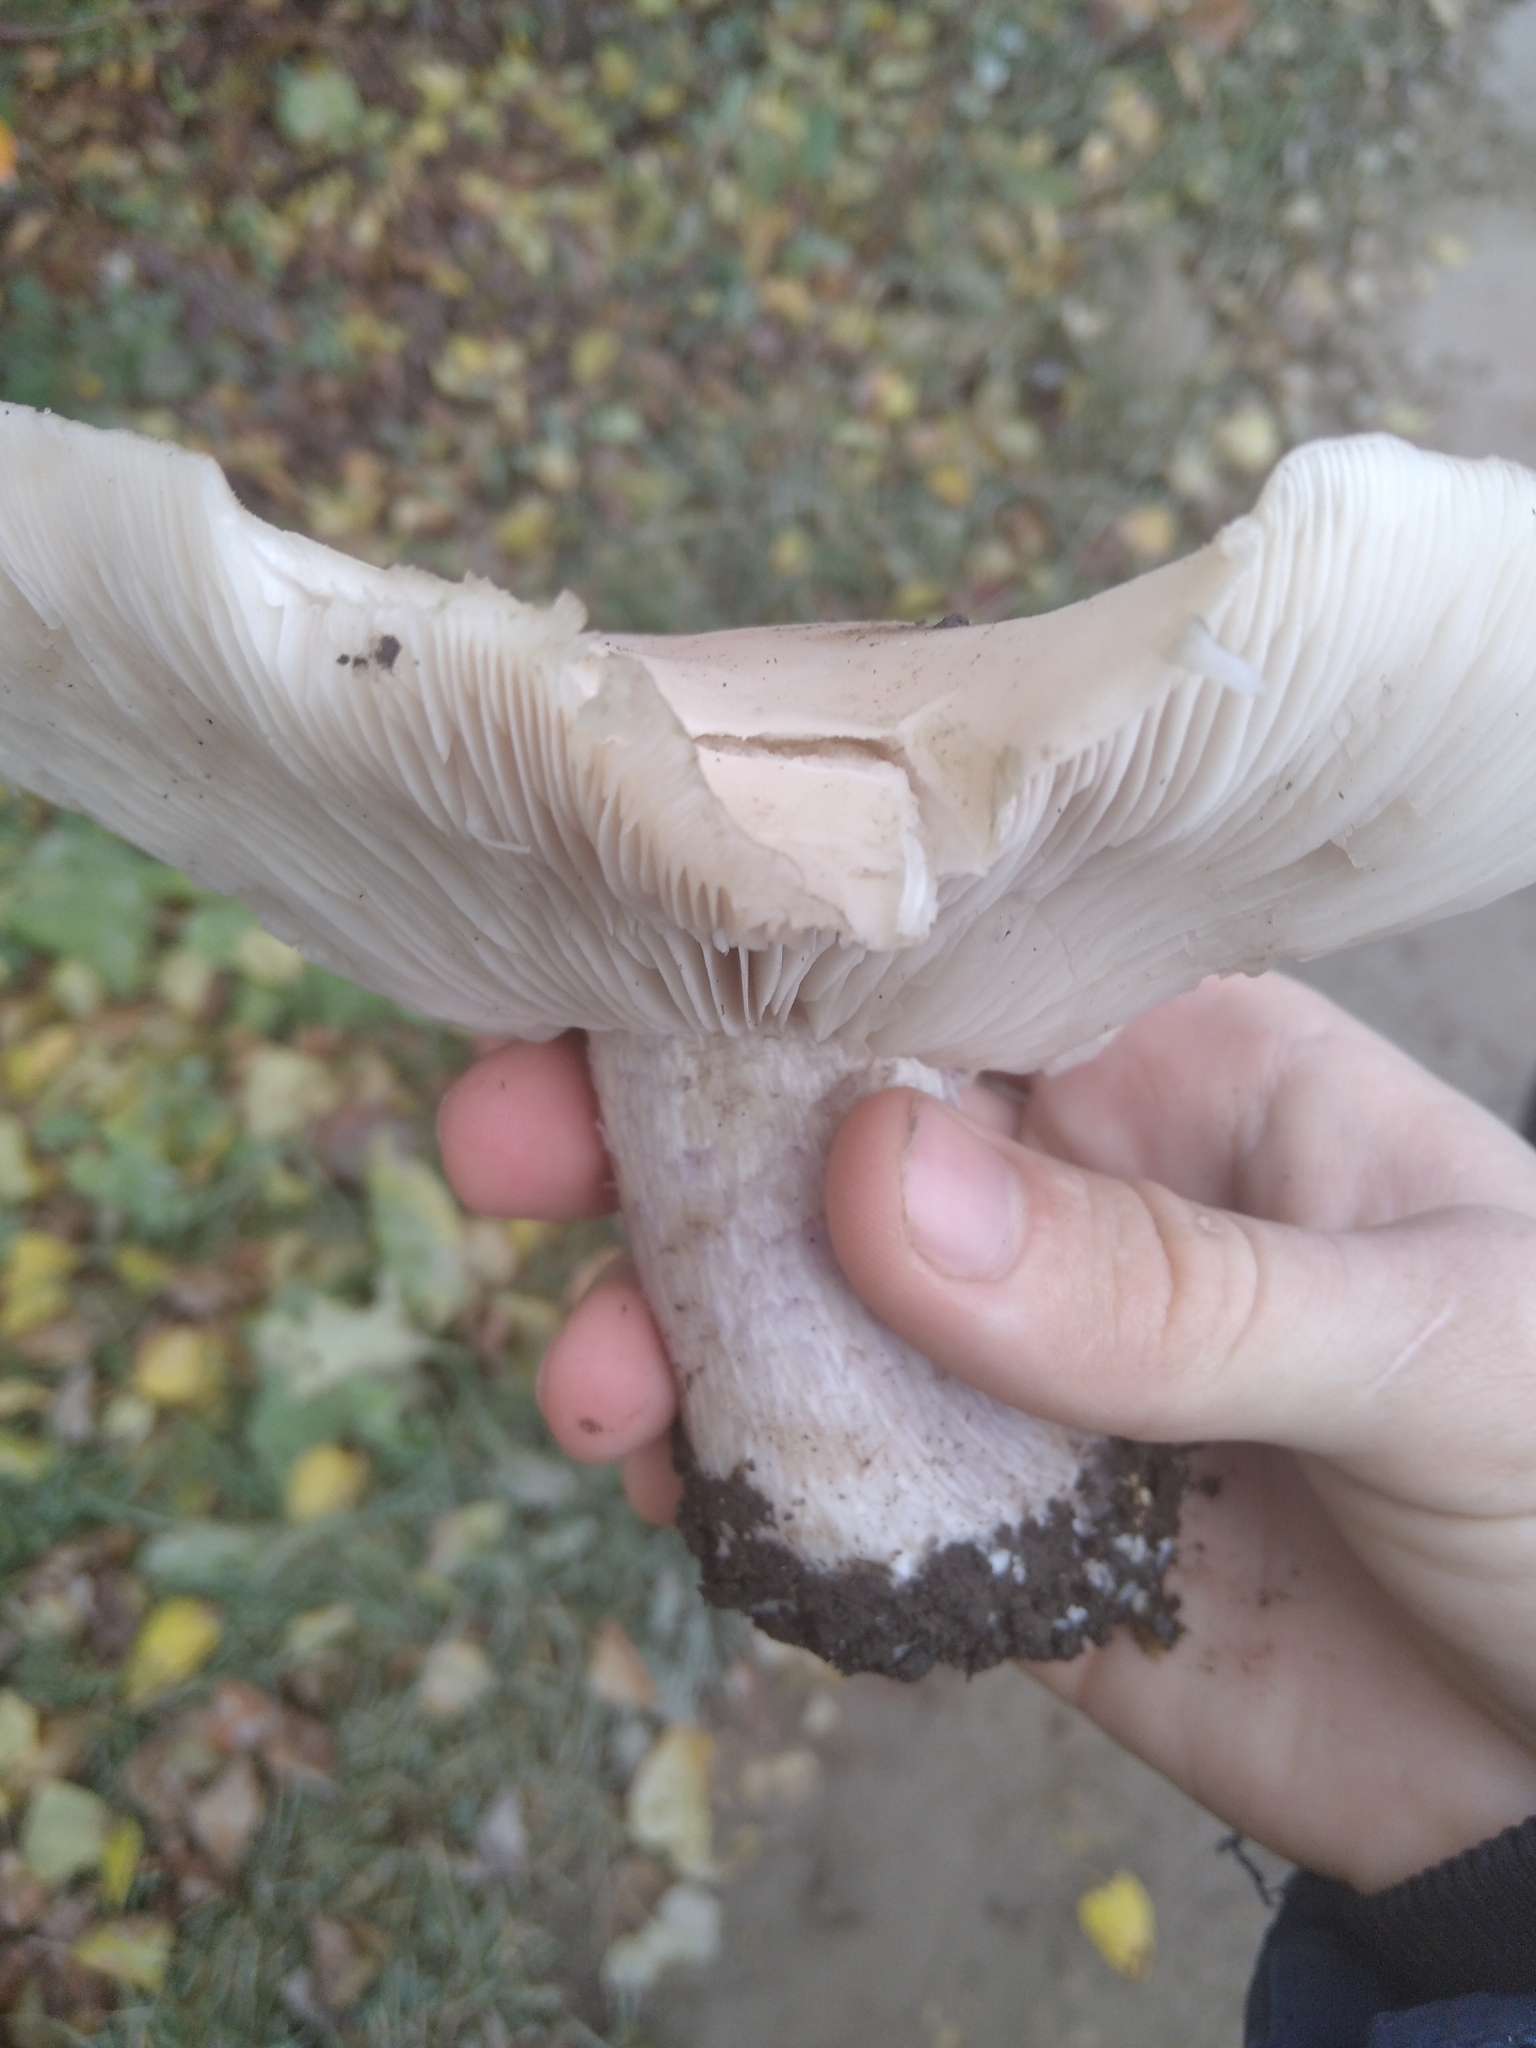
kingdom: Fungi
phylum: Basidiomycota
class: Agaricomycetes
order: Agaricales
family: Omphalotaceae
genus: Collybiopsis
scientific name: Collybiopsis peronata
